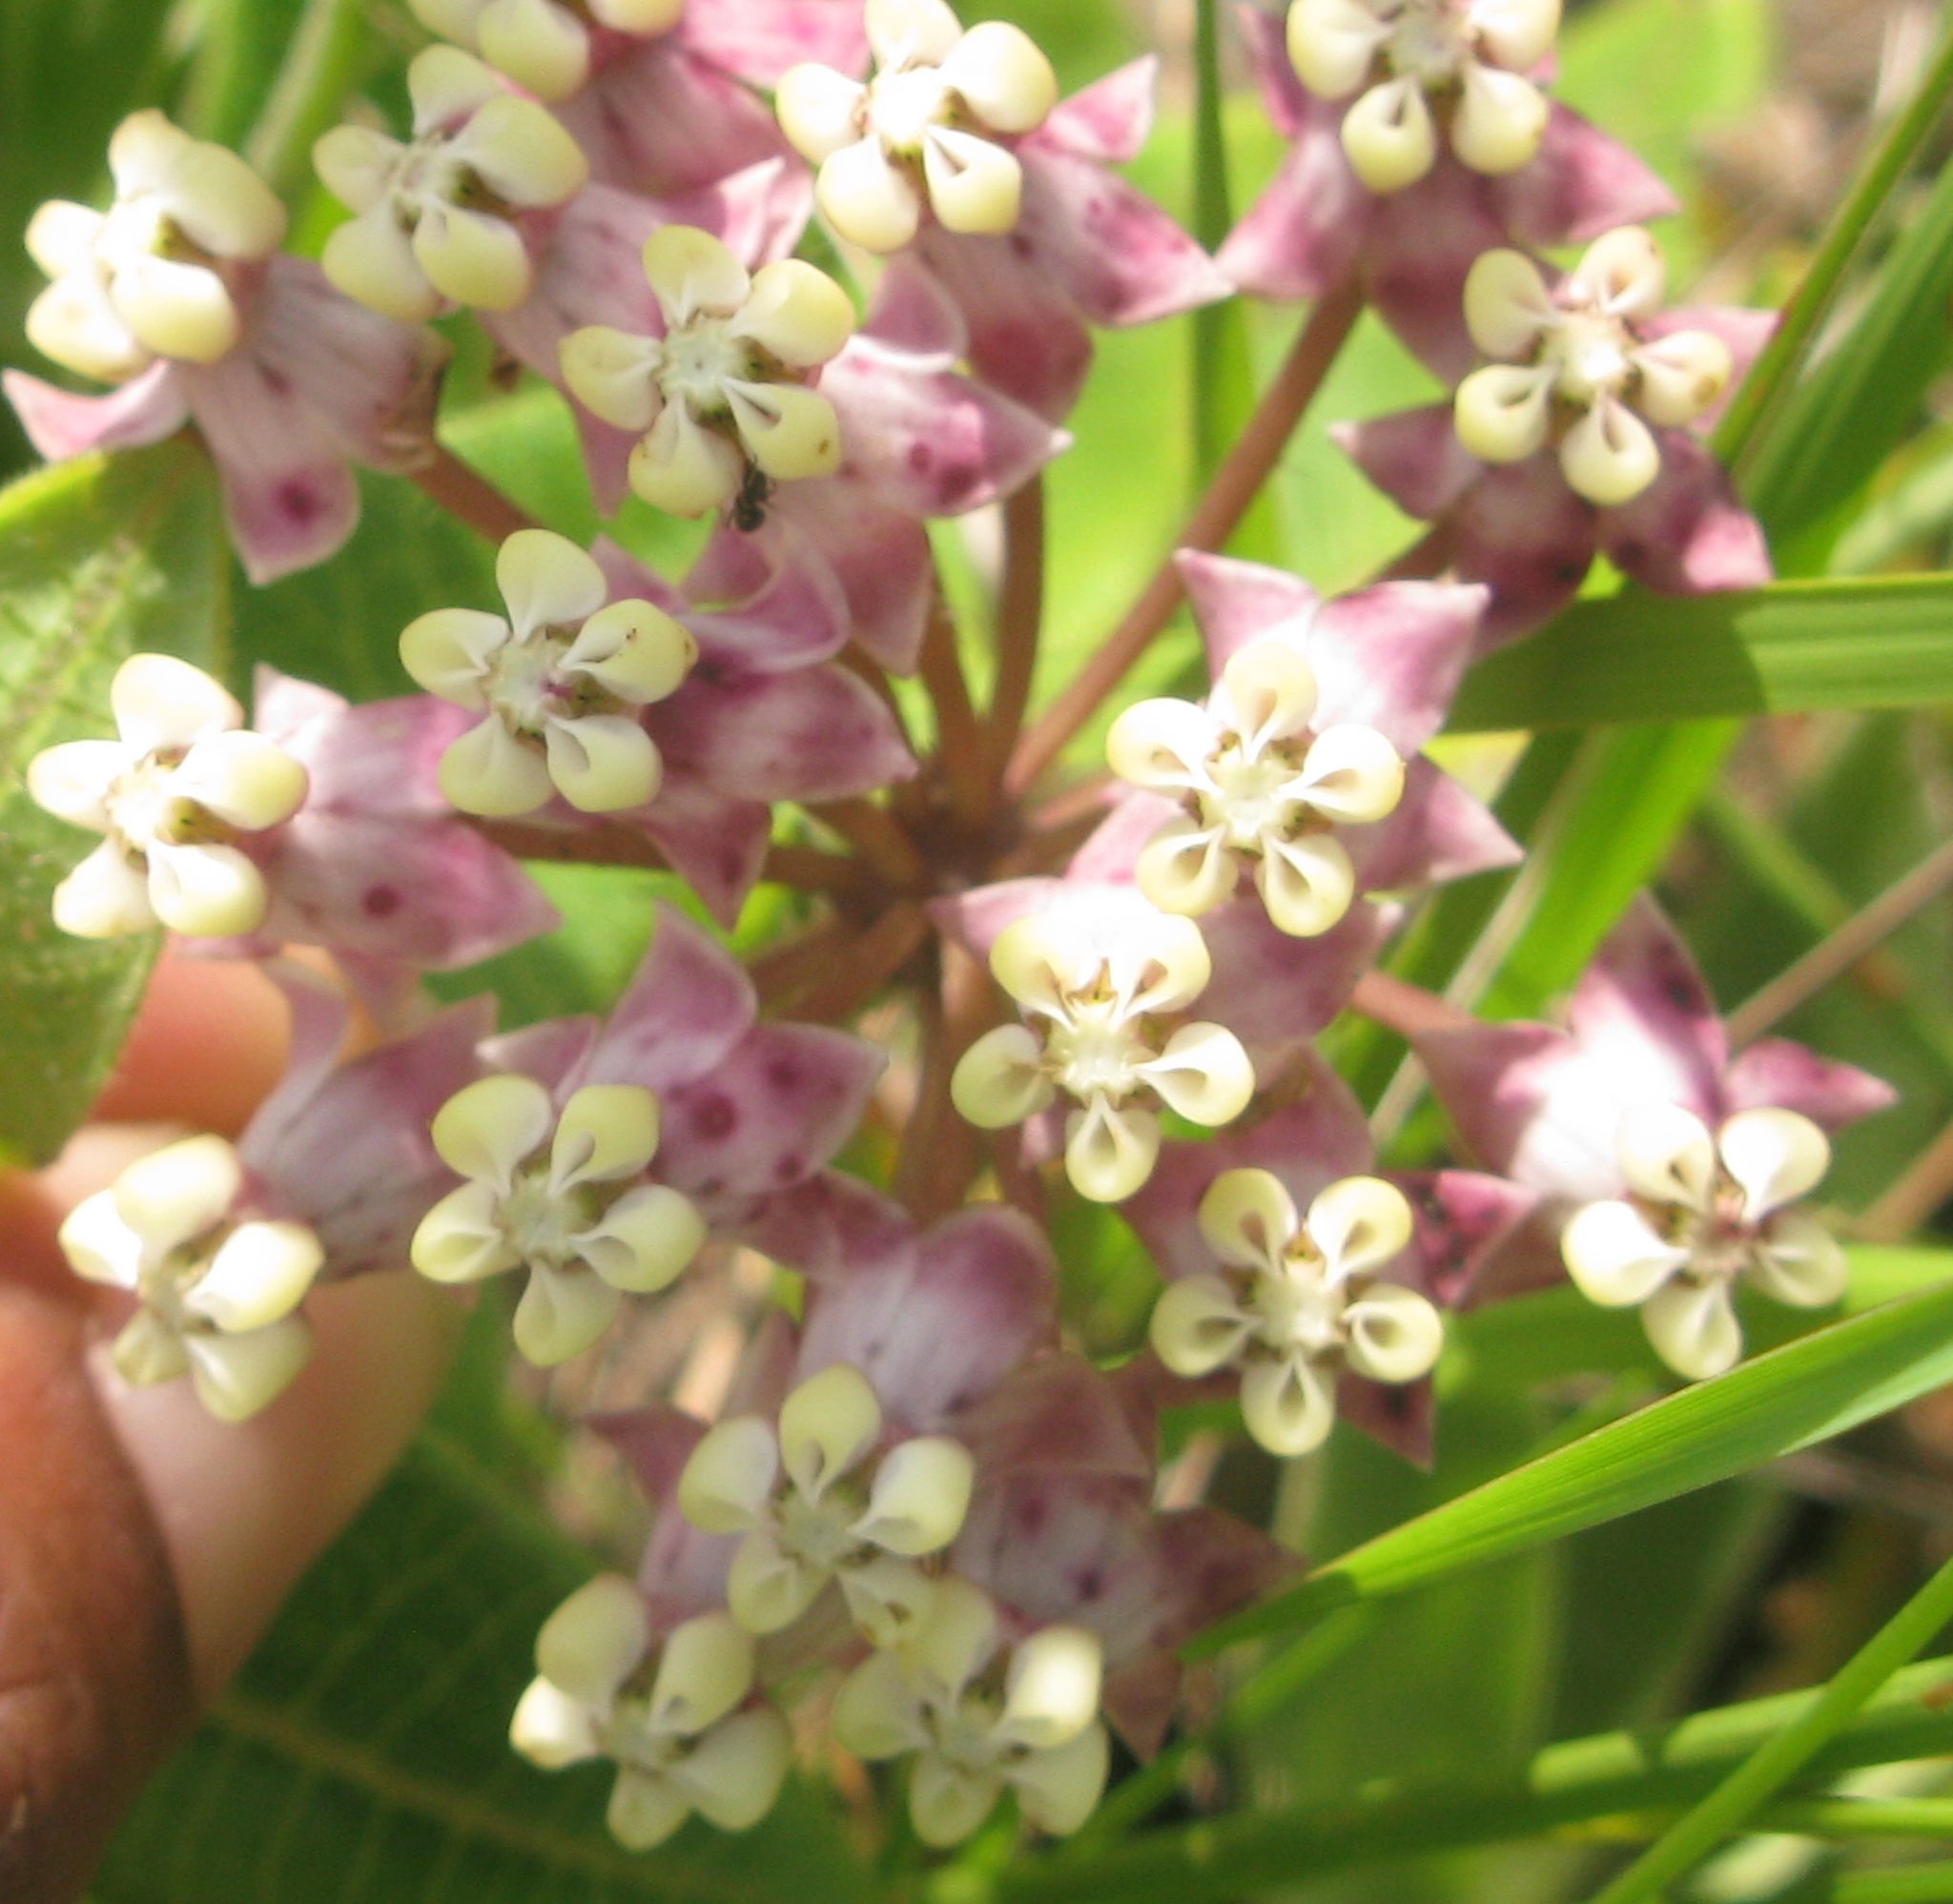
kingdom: Plantae
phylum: Tracheophyta
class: Magnoliopsida
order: Gentianales
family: Apocynaceae
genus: Asclepias
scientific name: Asclepias albens
